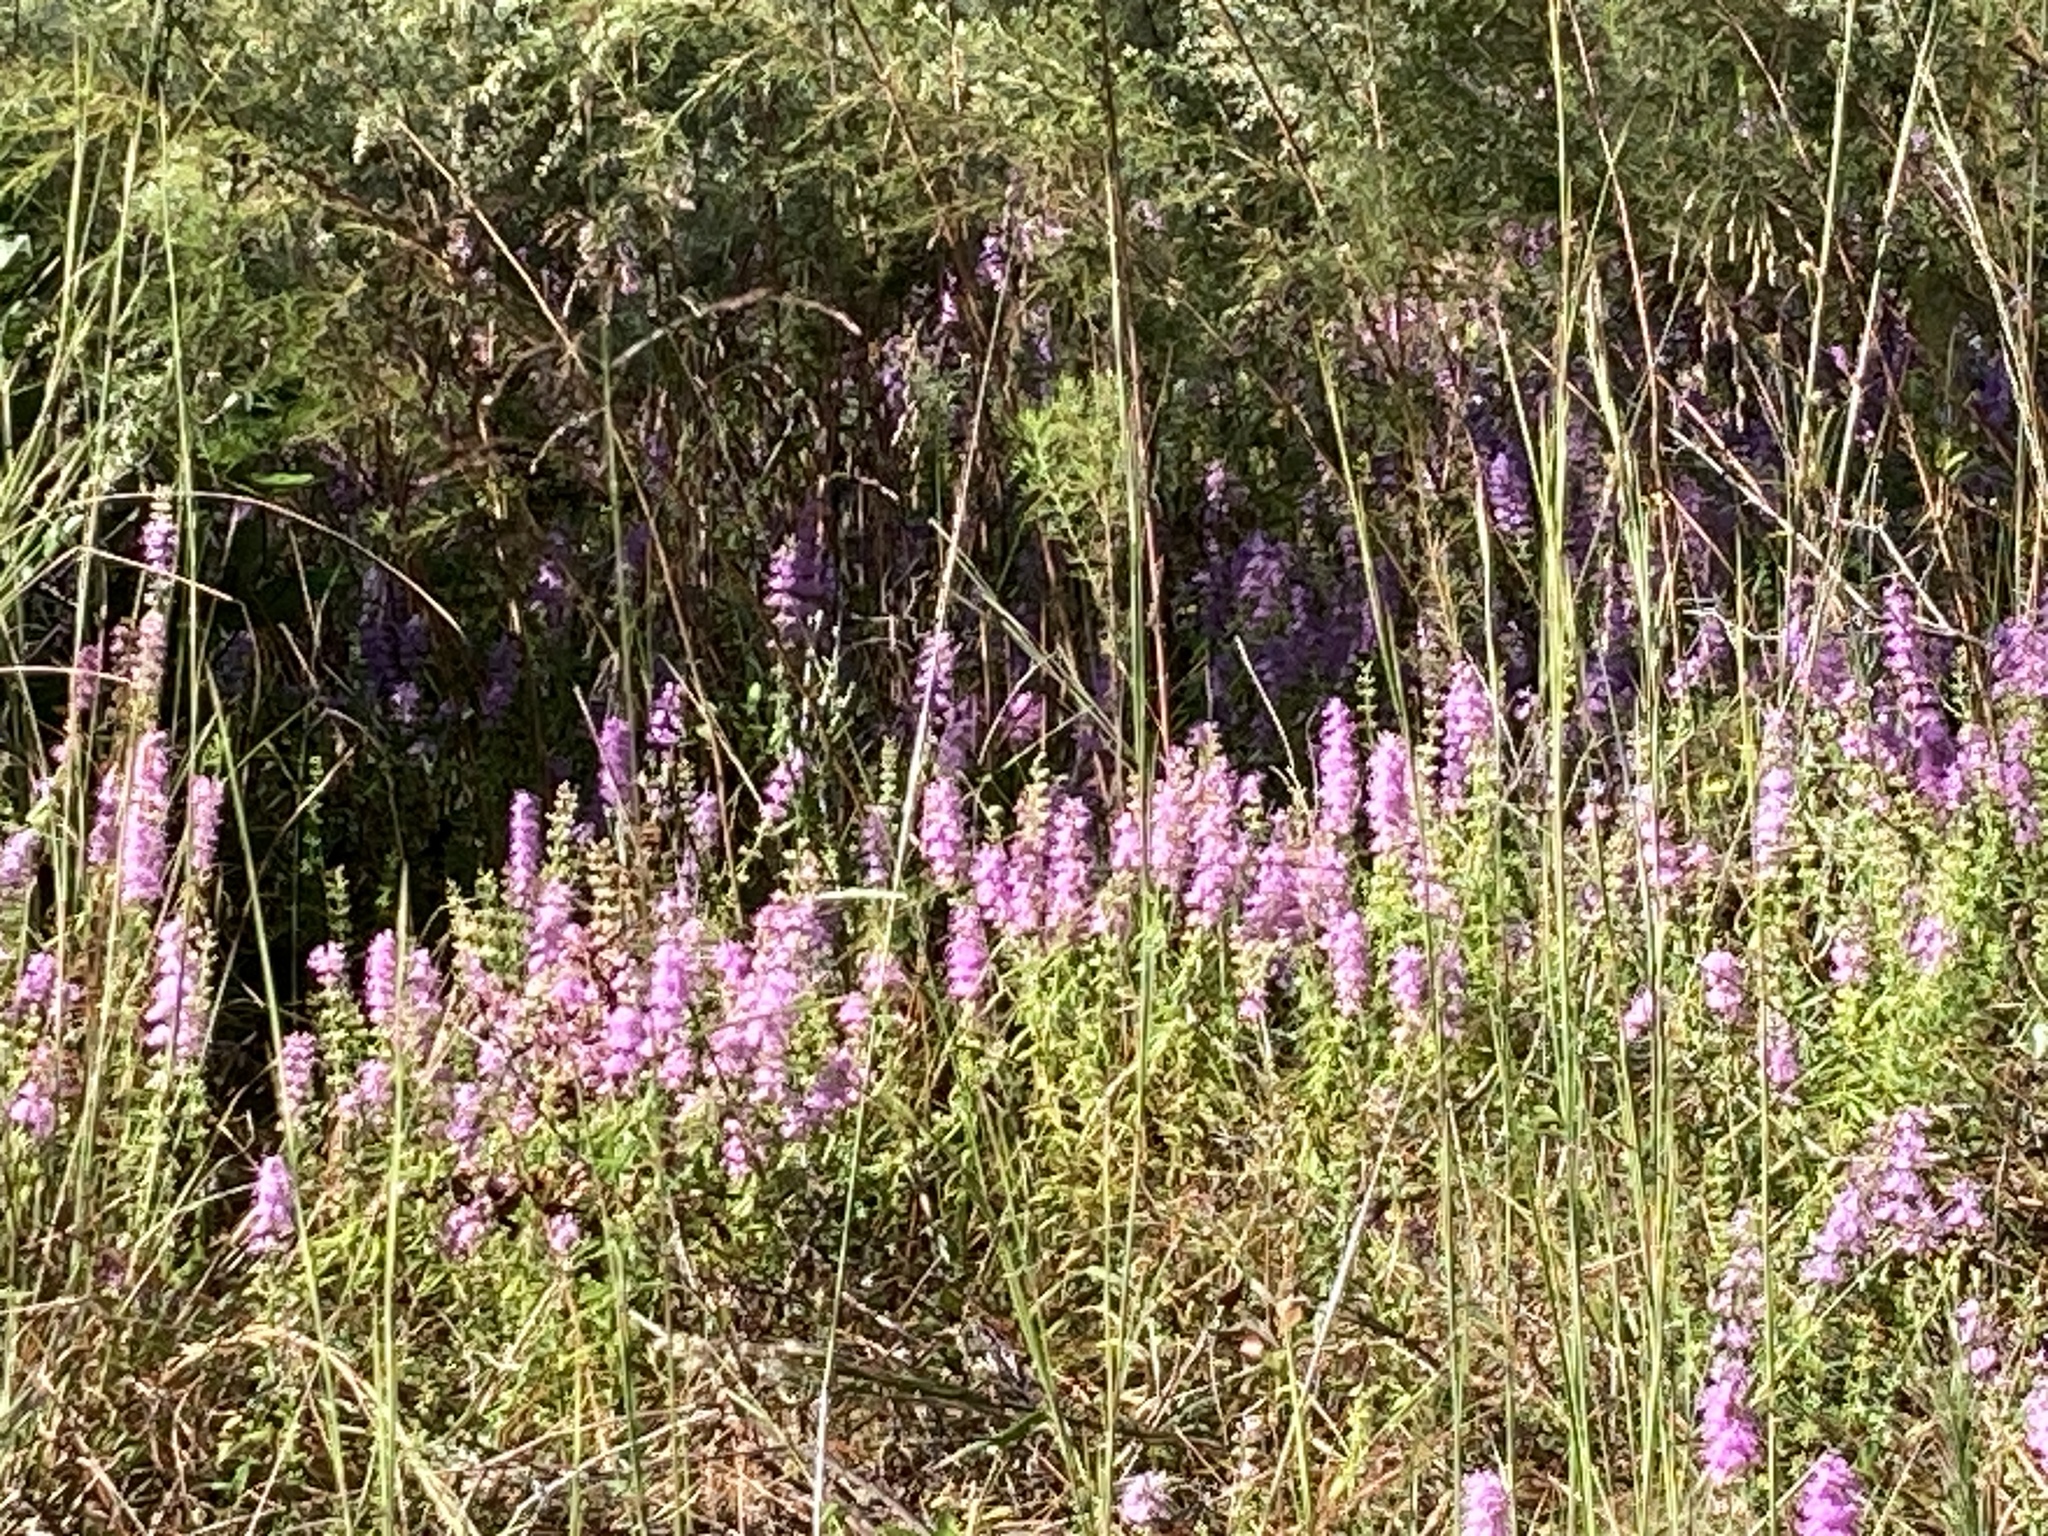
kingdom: Plantae
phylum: Tracheophyta
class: Magnoliopsida
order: Lamiales
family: Lamiaceae
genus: Dicerandra
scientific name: Dicerandra densiflora
